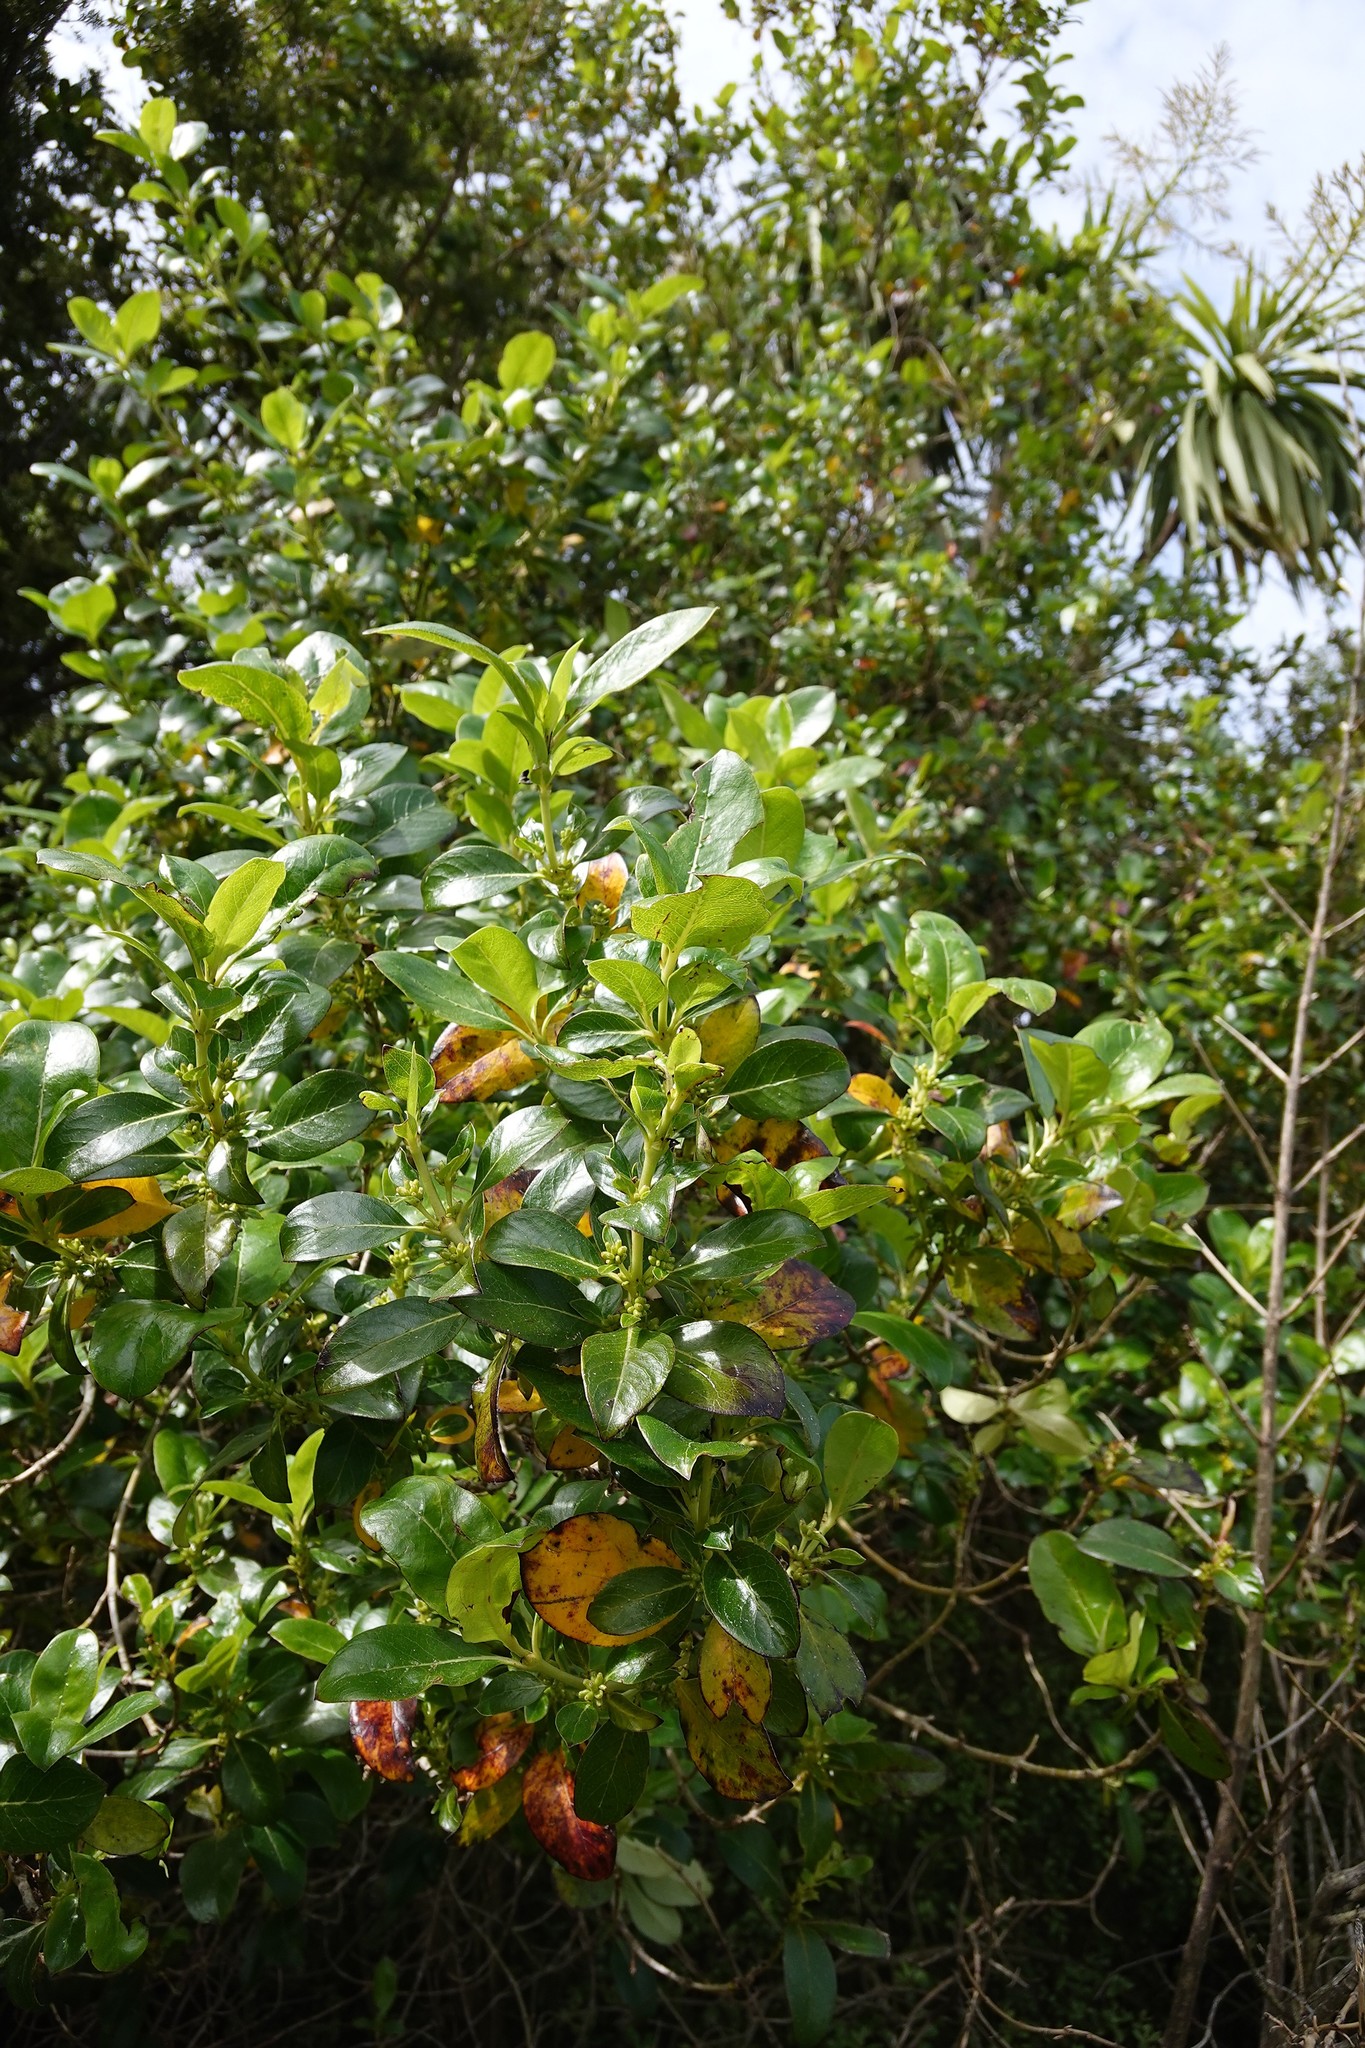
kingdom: Plantae
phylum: Tracheophyta
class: Magnoliopsida
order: Gentianales
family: Rubiaceae
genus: Coprosma
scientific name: Coprosma robusta
